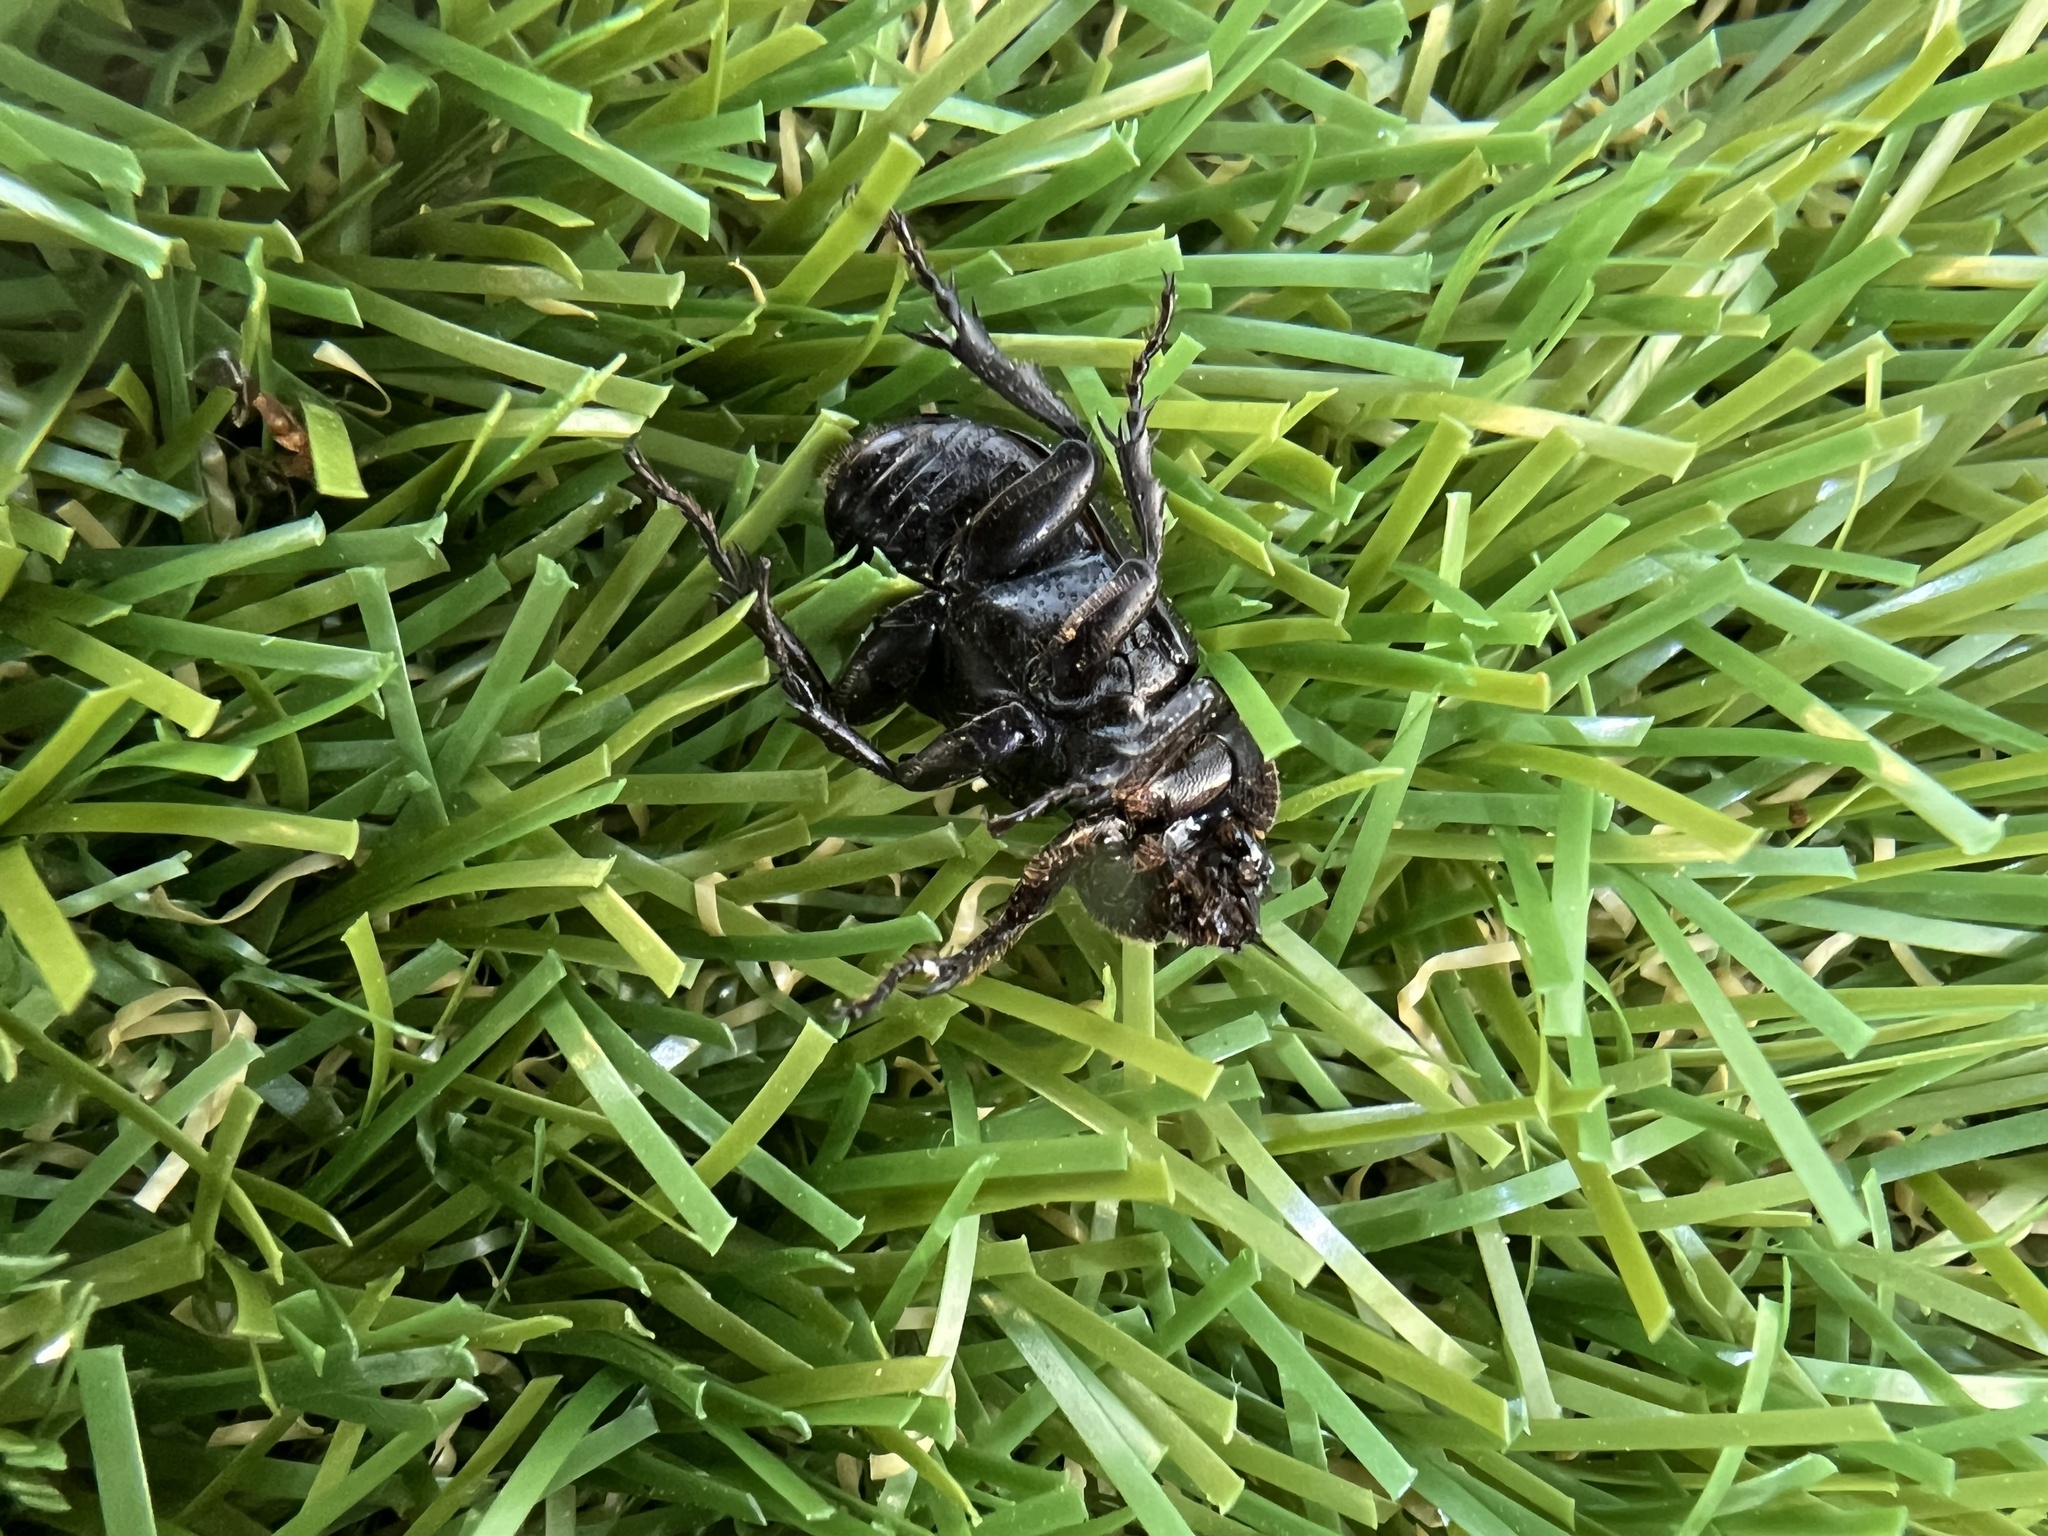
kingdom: Animalia
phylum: Arthropoda
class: Insecta
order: Coleoptera
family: Scarabaeidae
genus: Phileurus
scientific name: Phileurus valgus
